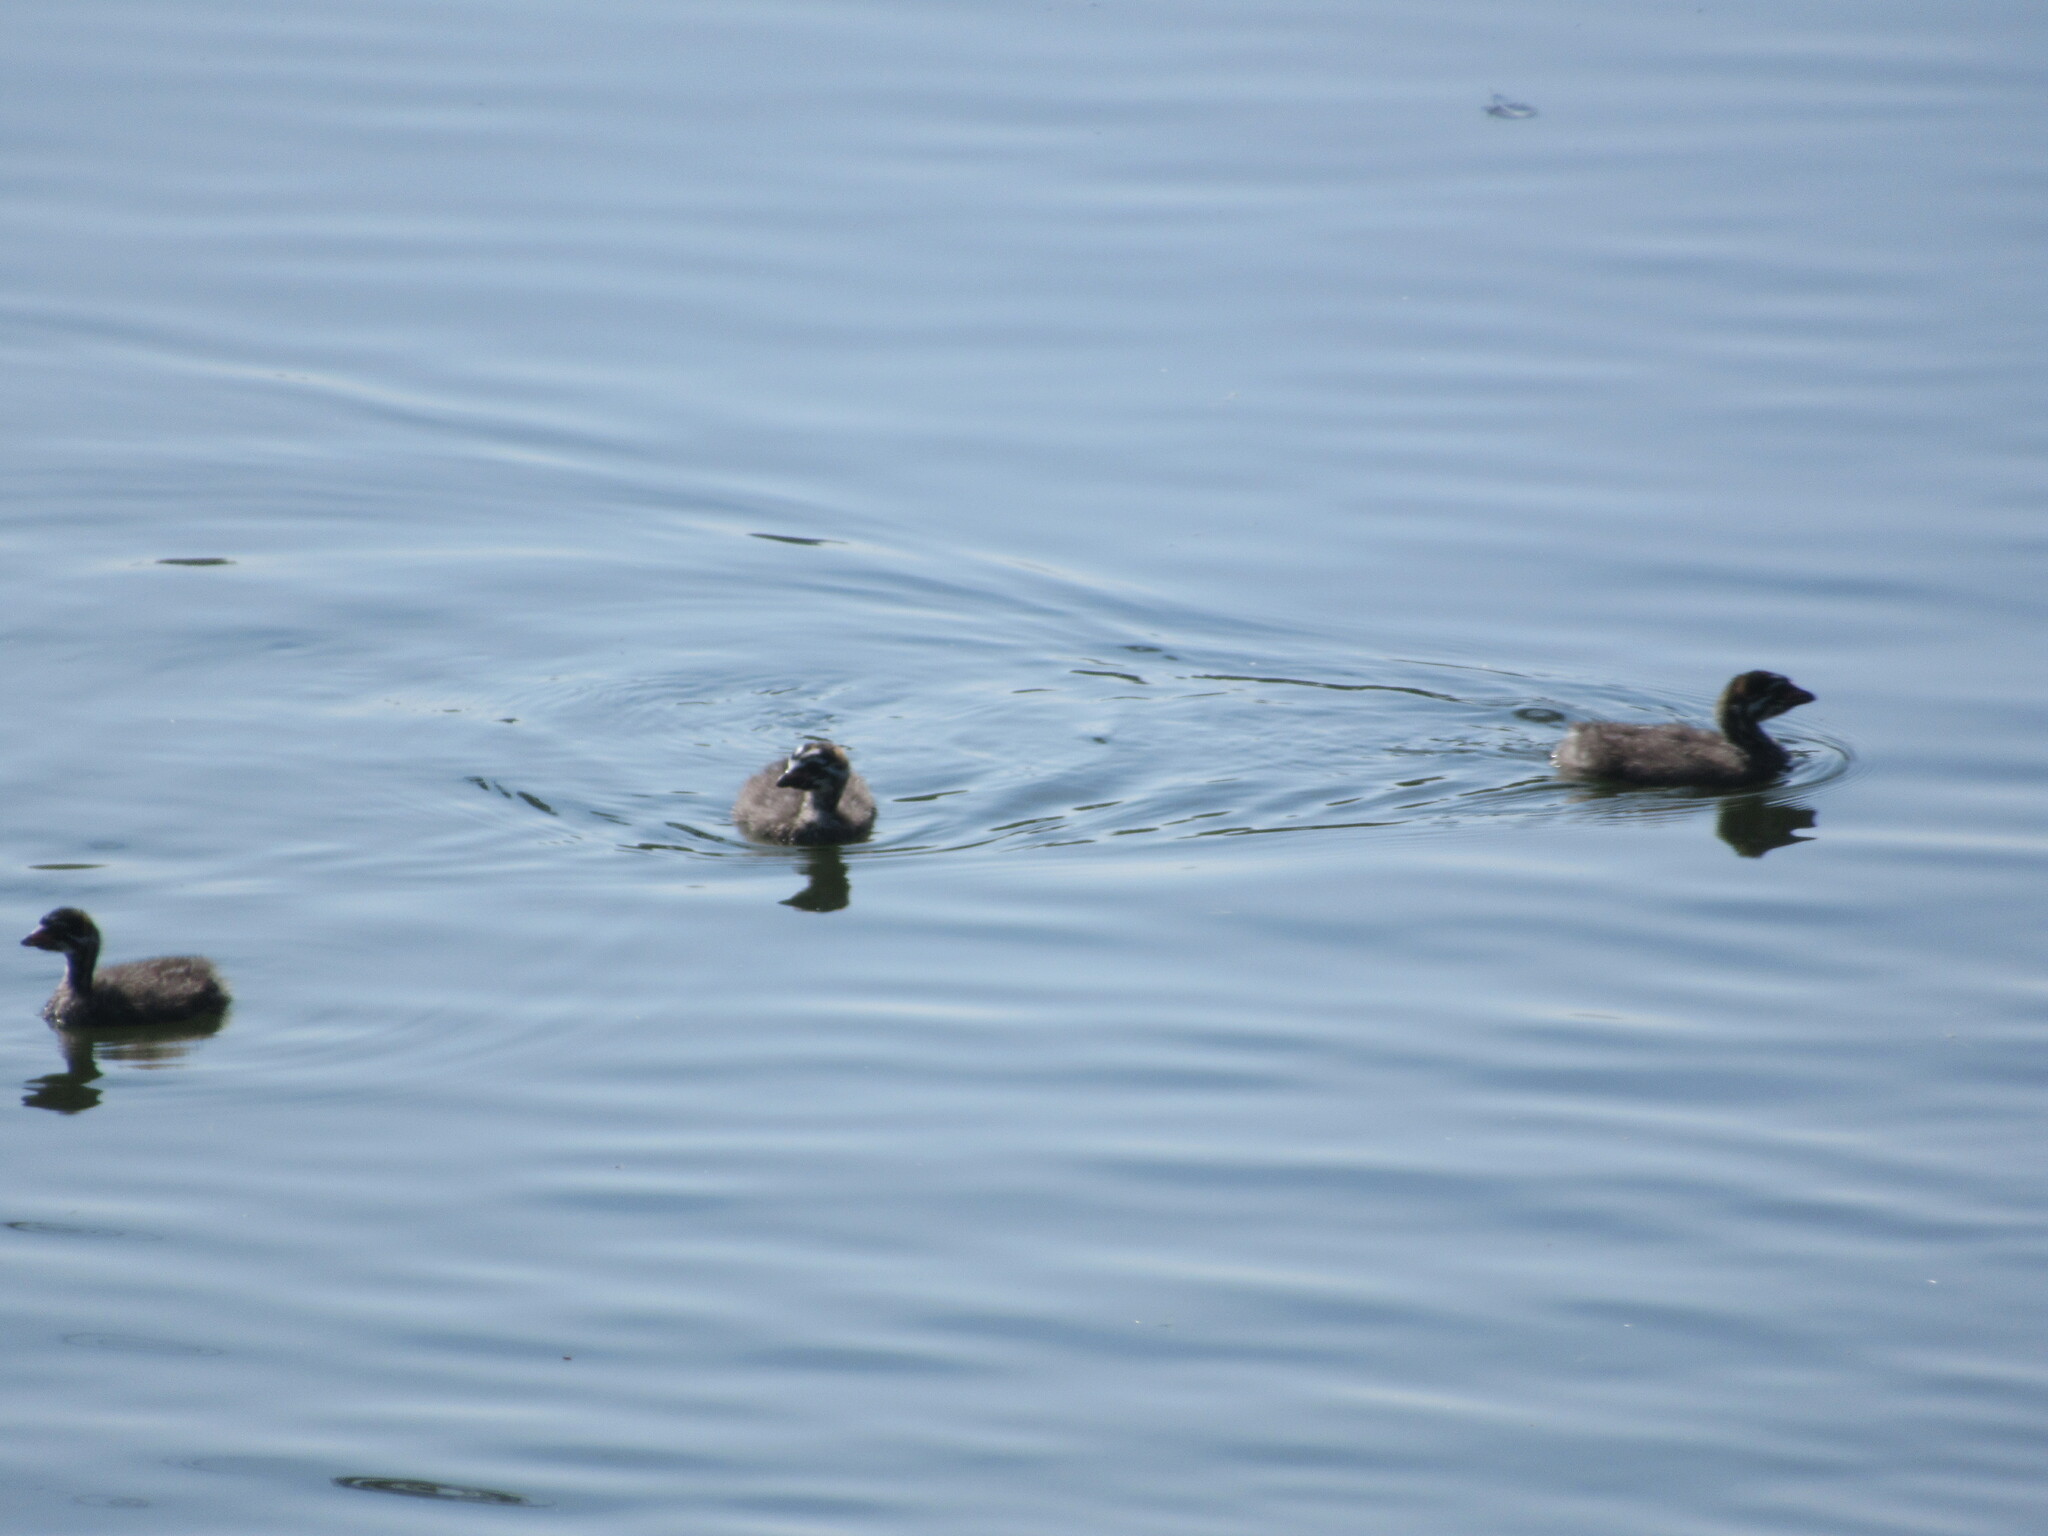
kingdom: Animalia
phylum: Chordata
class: Aves
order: Podicipediformes
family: Podicipedidae
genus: Podilymbus
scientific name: Podilymbus podiceps
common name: Pied-billed grebe
